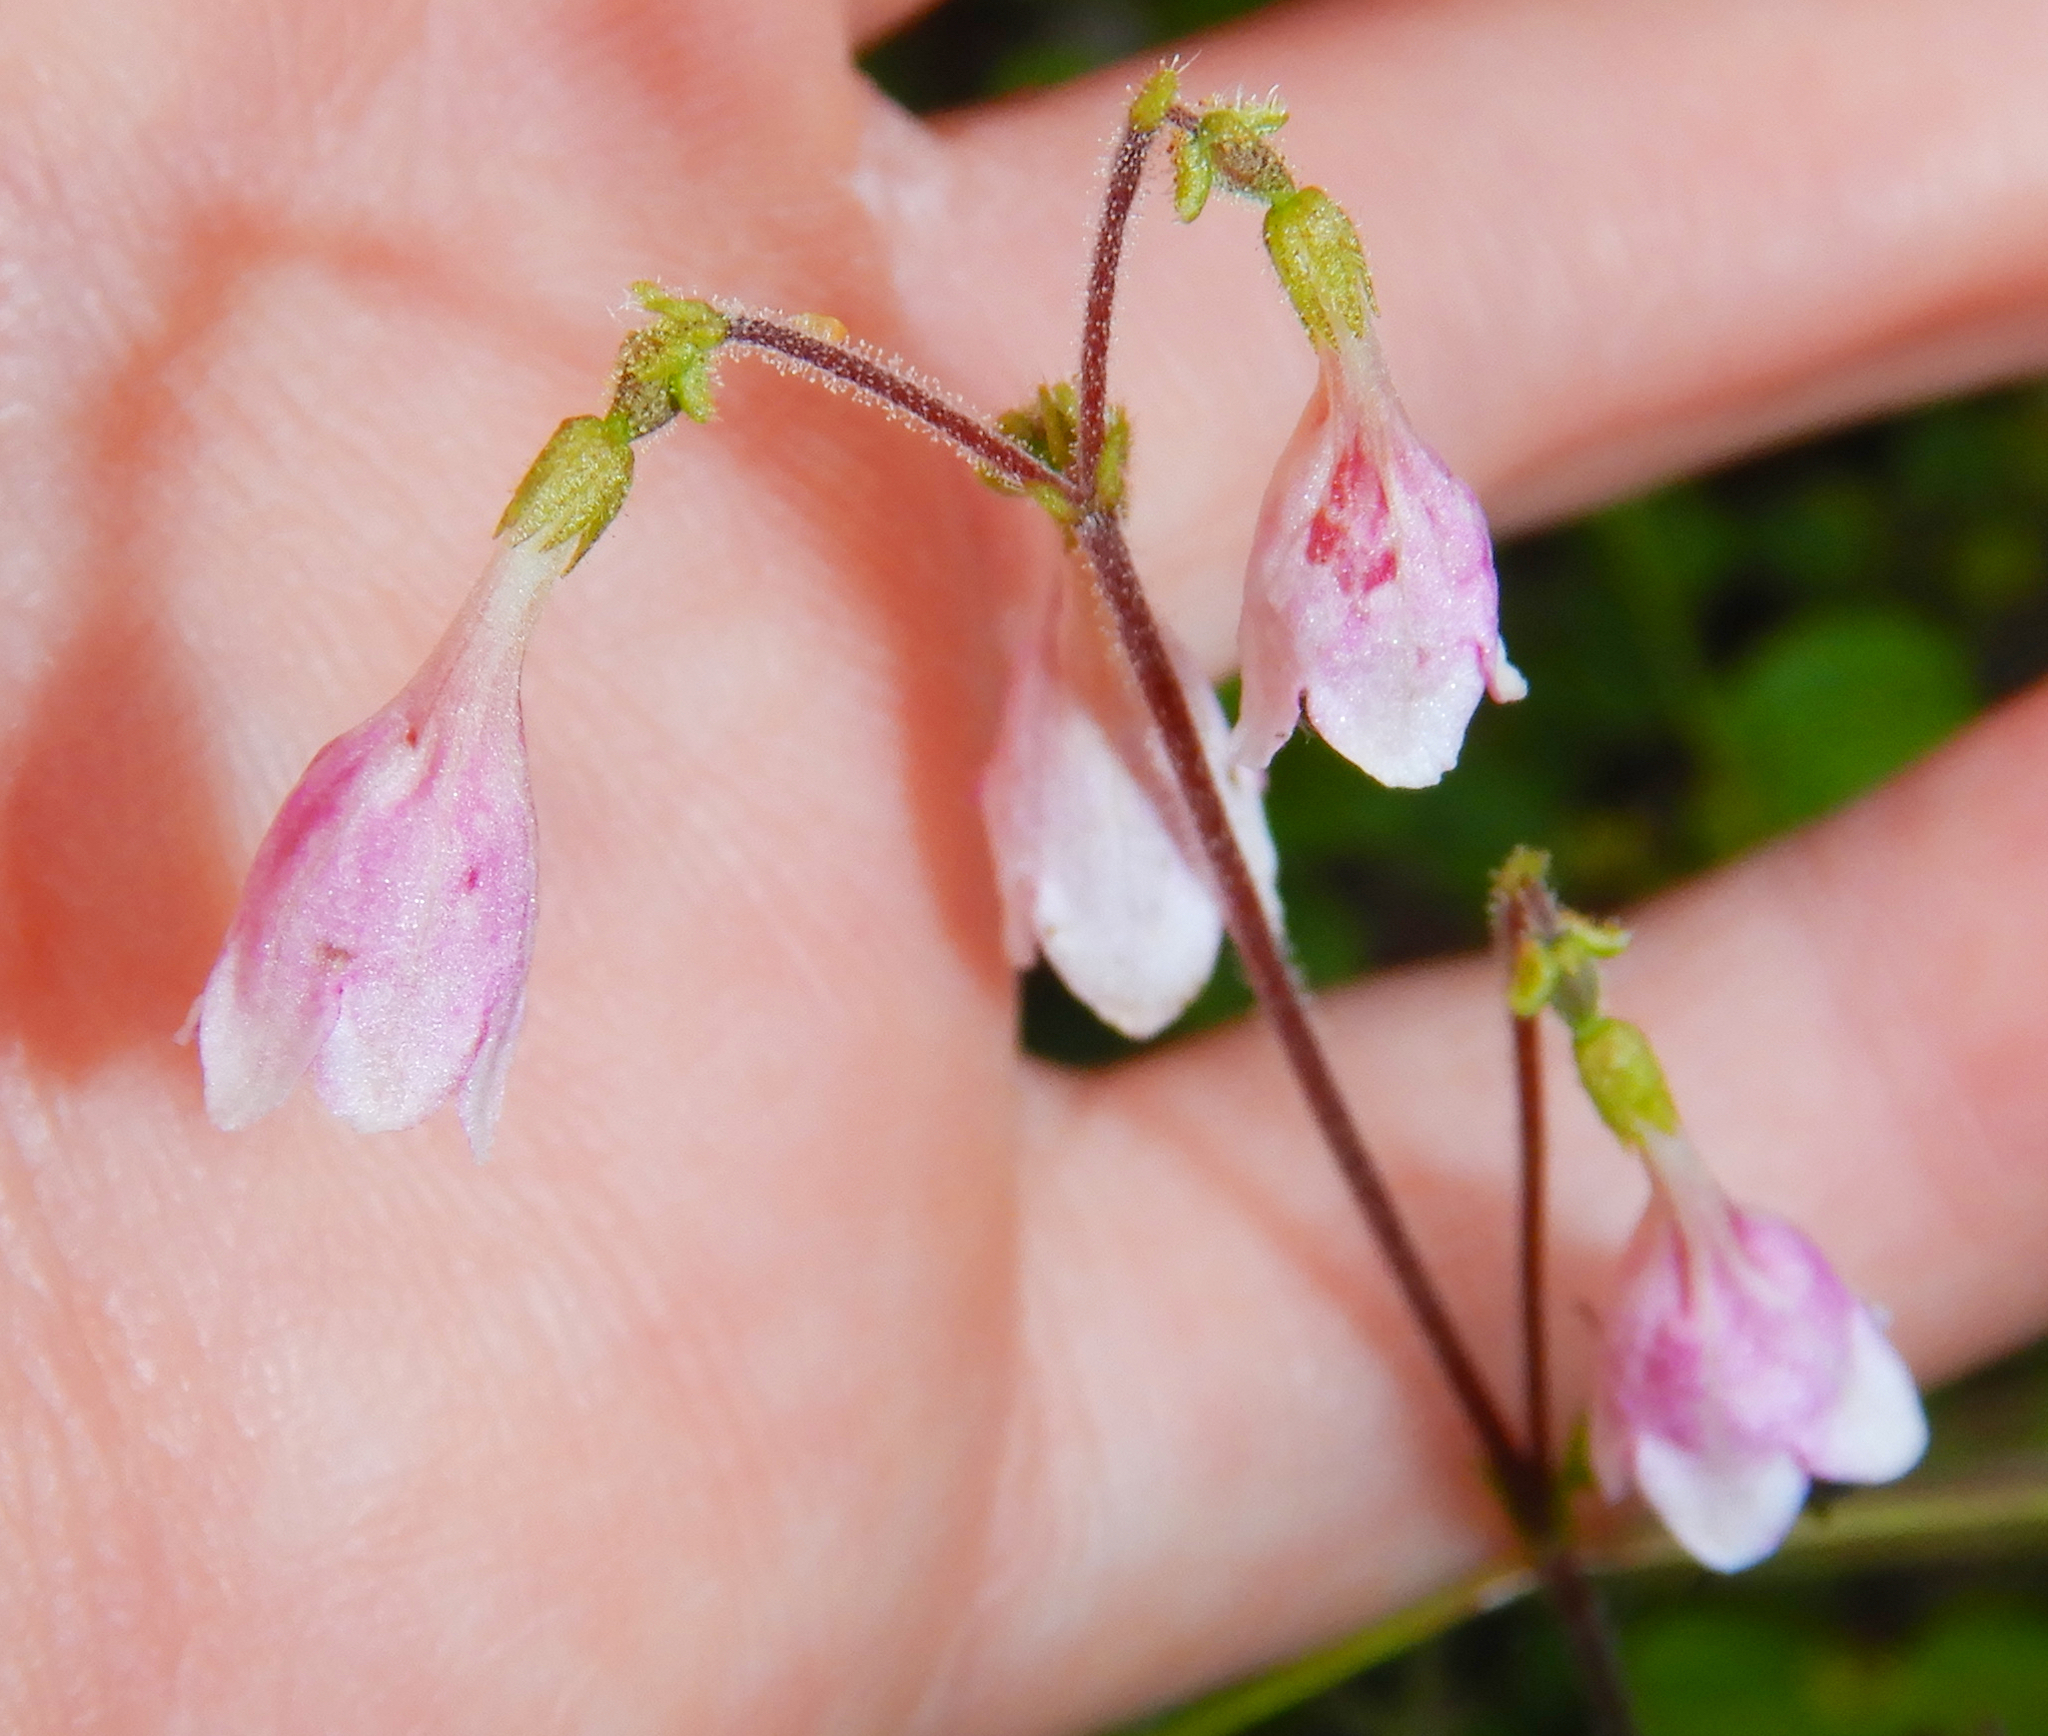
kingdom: Plantae
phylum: Tracheophyta
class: Magnoliopsida
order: Dipsacales
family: Caprifoliaceae
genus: Linnaea
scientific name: Linnaea borealis
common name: Twinflower
